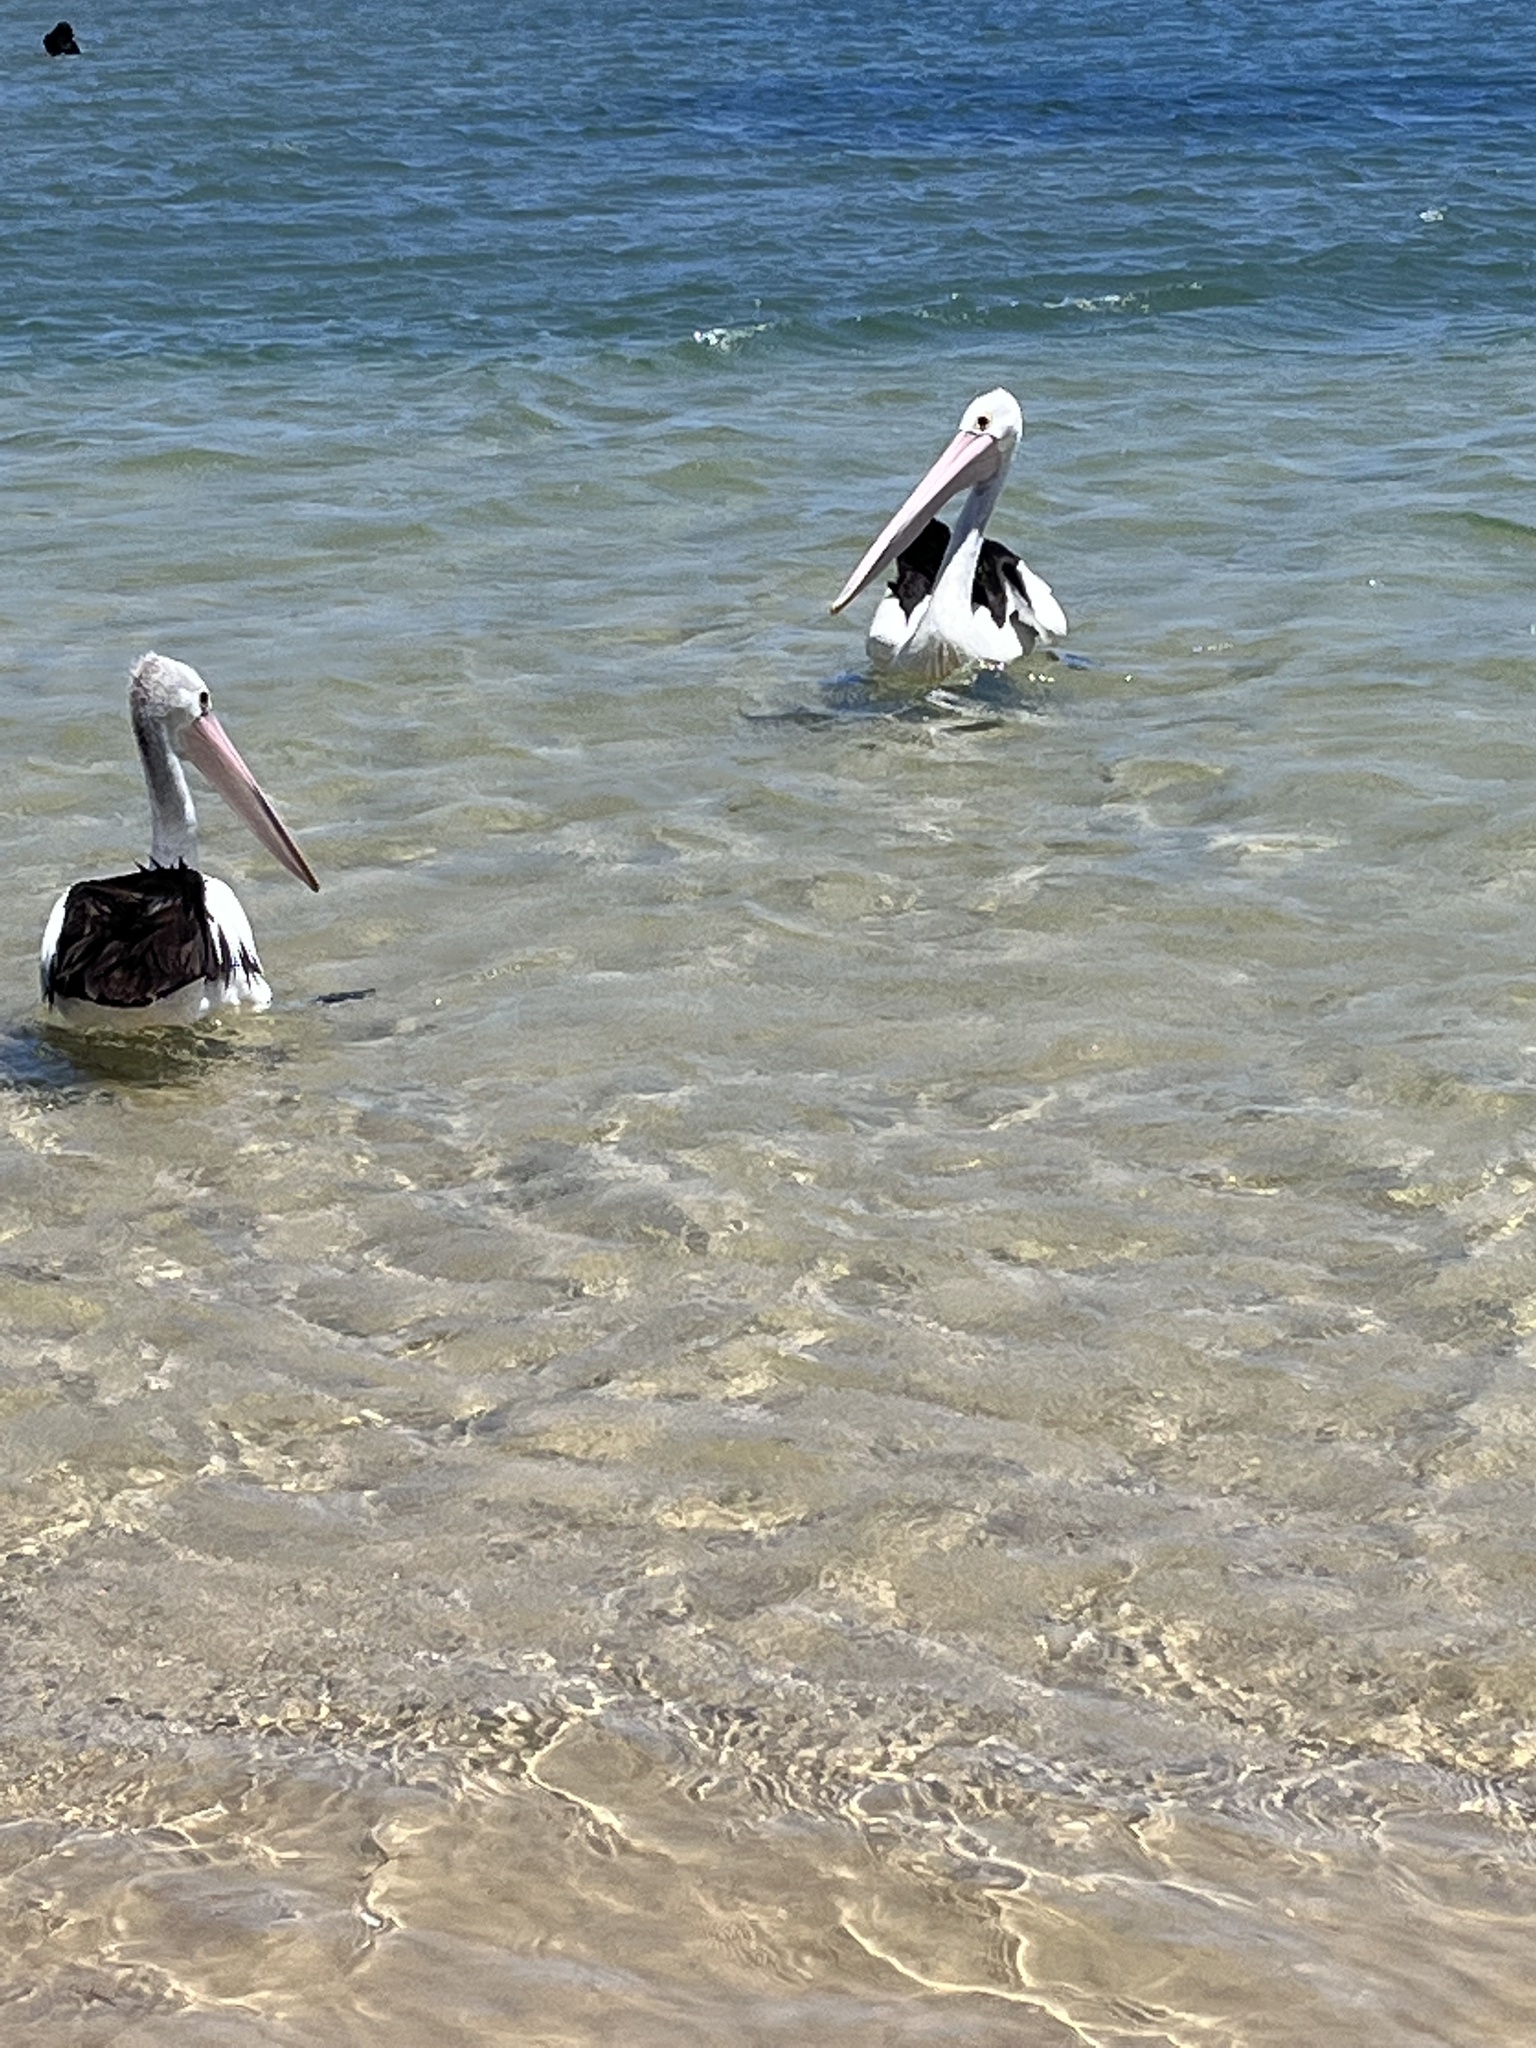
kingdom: Animalia
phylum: Chordata
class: Aves
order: Pelecaniformes
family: Pelecanidae
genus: Pelecanus
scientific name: Pelecanus conspicillatus
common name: Australian pelican
